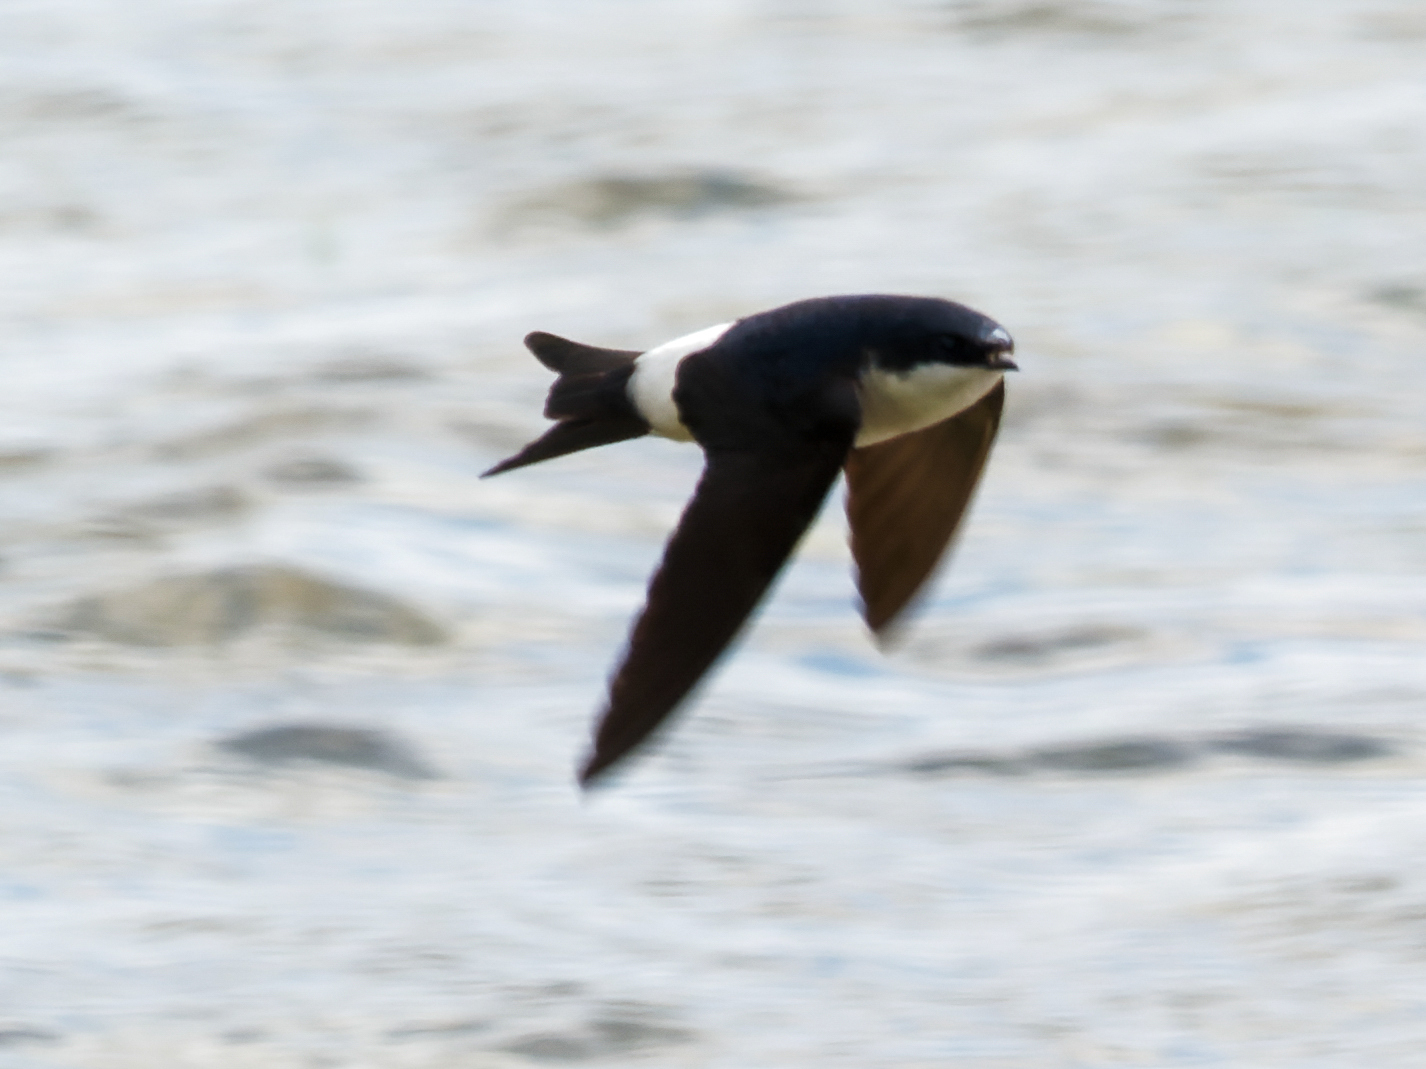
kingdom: Animalia
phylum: Chordata
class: Aves
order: Passeriformes
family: Hirundinidae
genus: Delichon
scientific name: Delichon urbicum
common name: Common house martin
